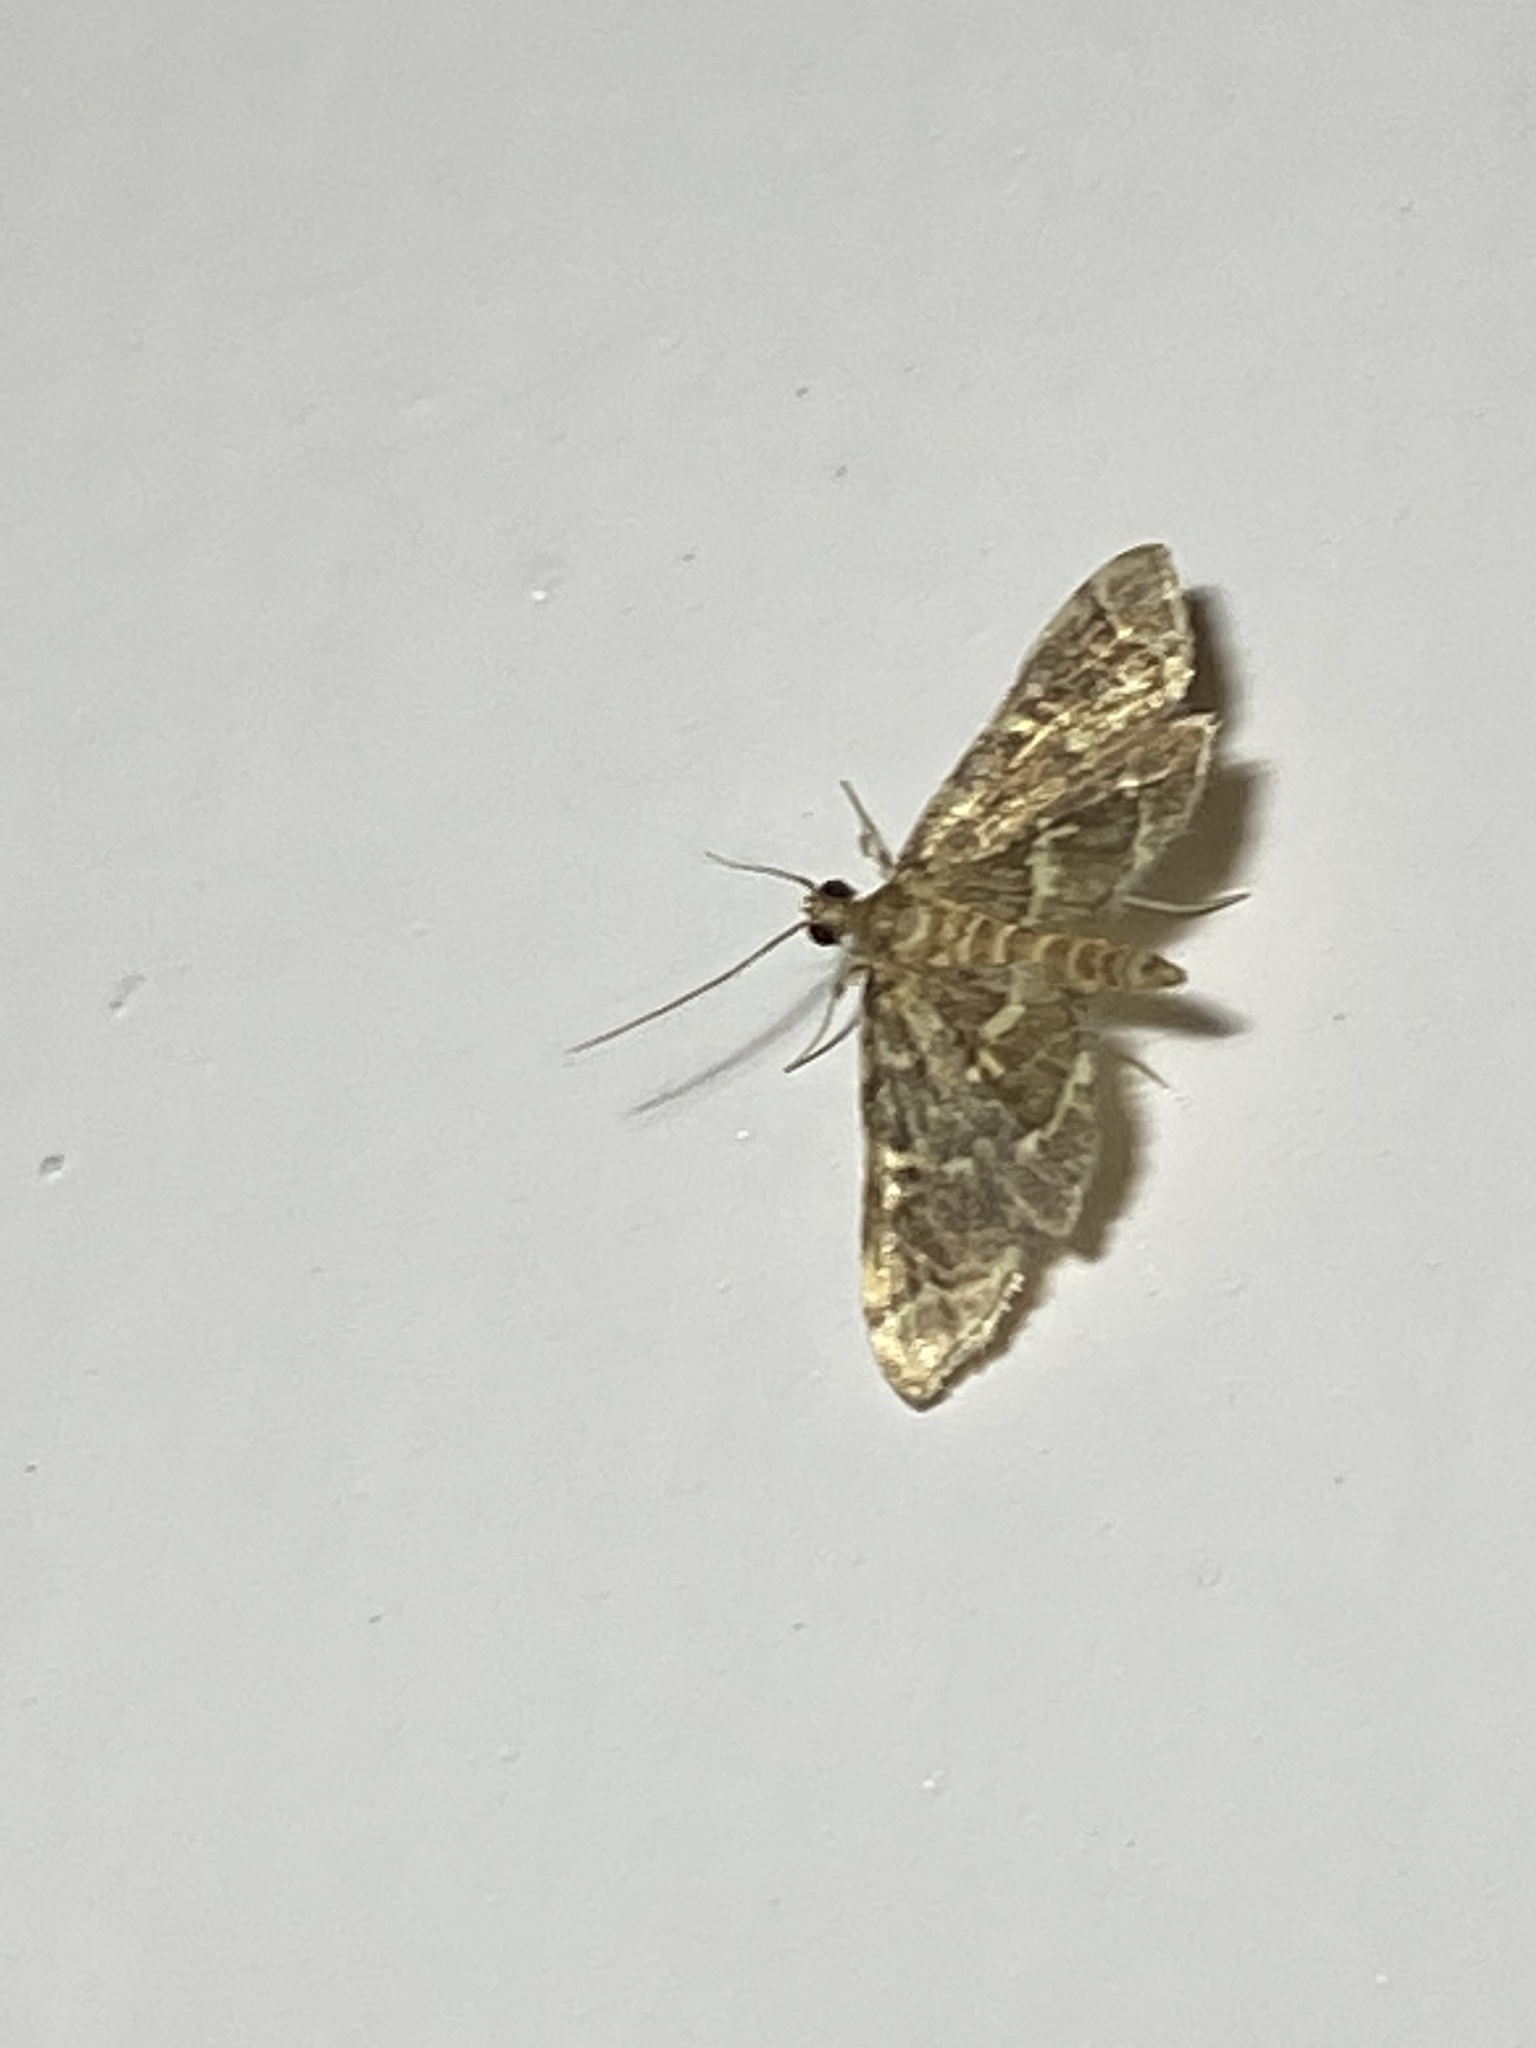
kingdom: Animalia
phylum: Arthropoda
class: Insecta
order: Lepidoptera
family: Crambidae
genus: Anageshna
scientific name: Anageshna primordialis
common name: Yellow-spotted webworm moth
